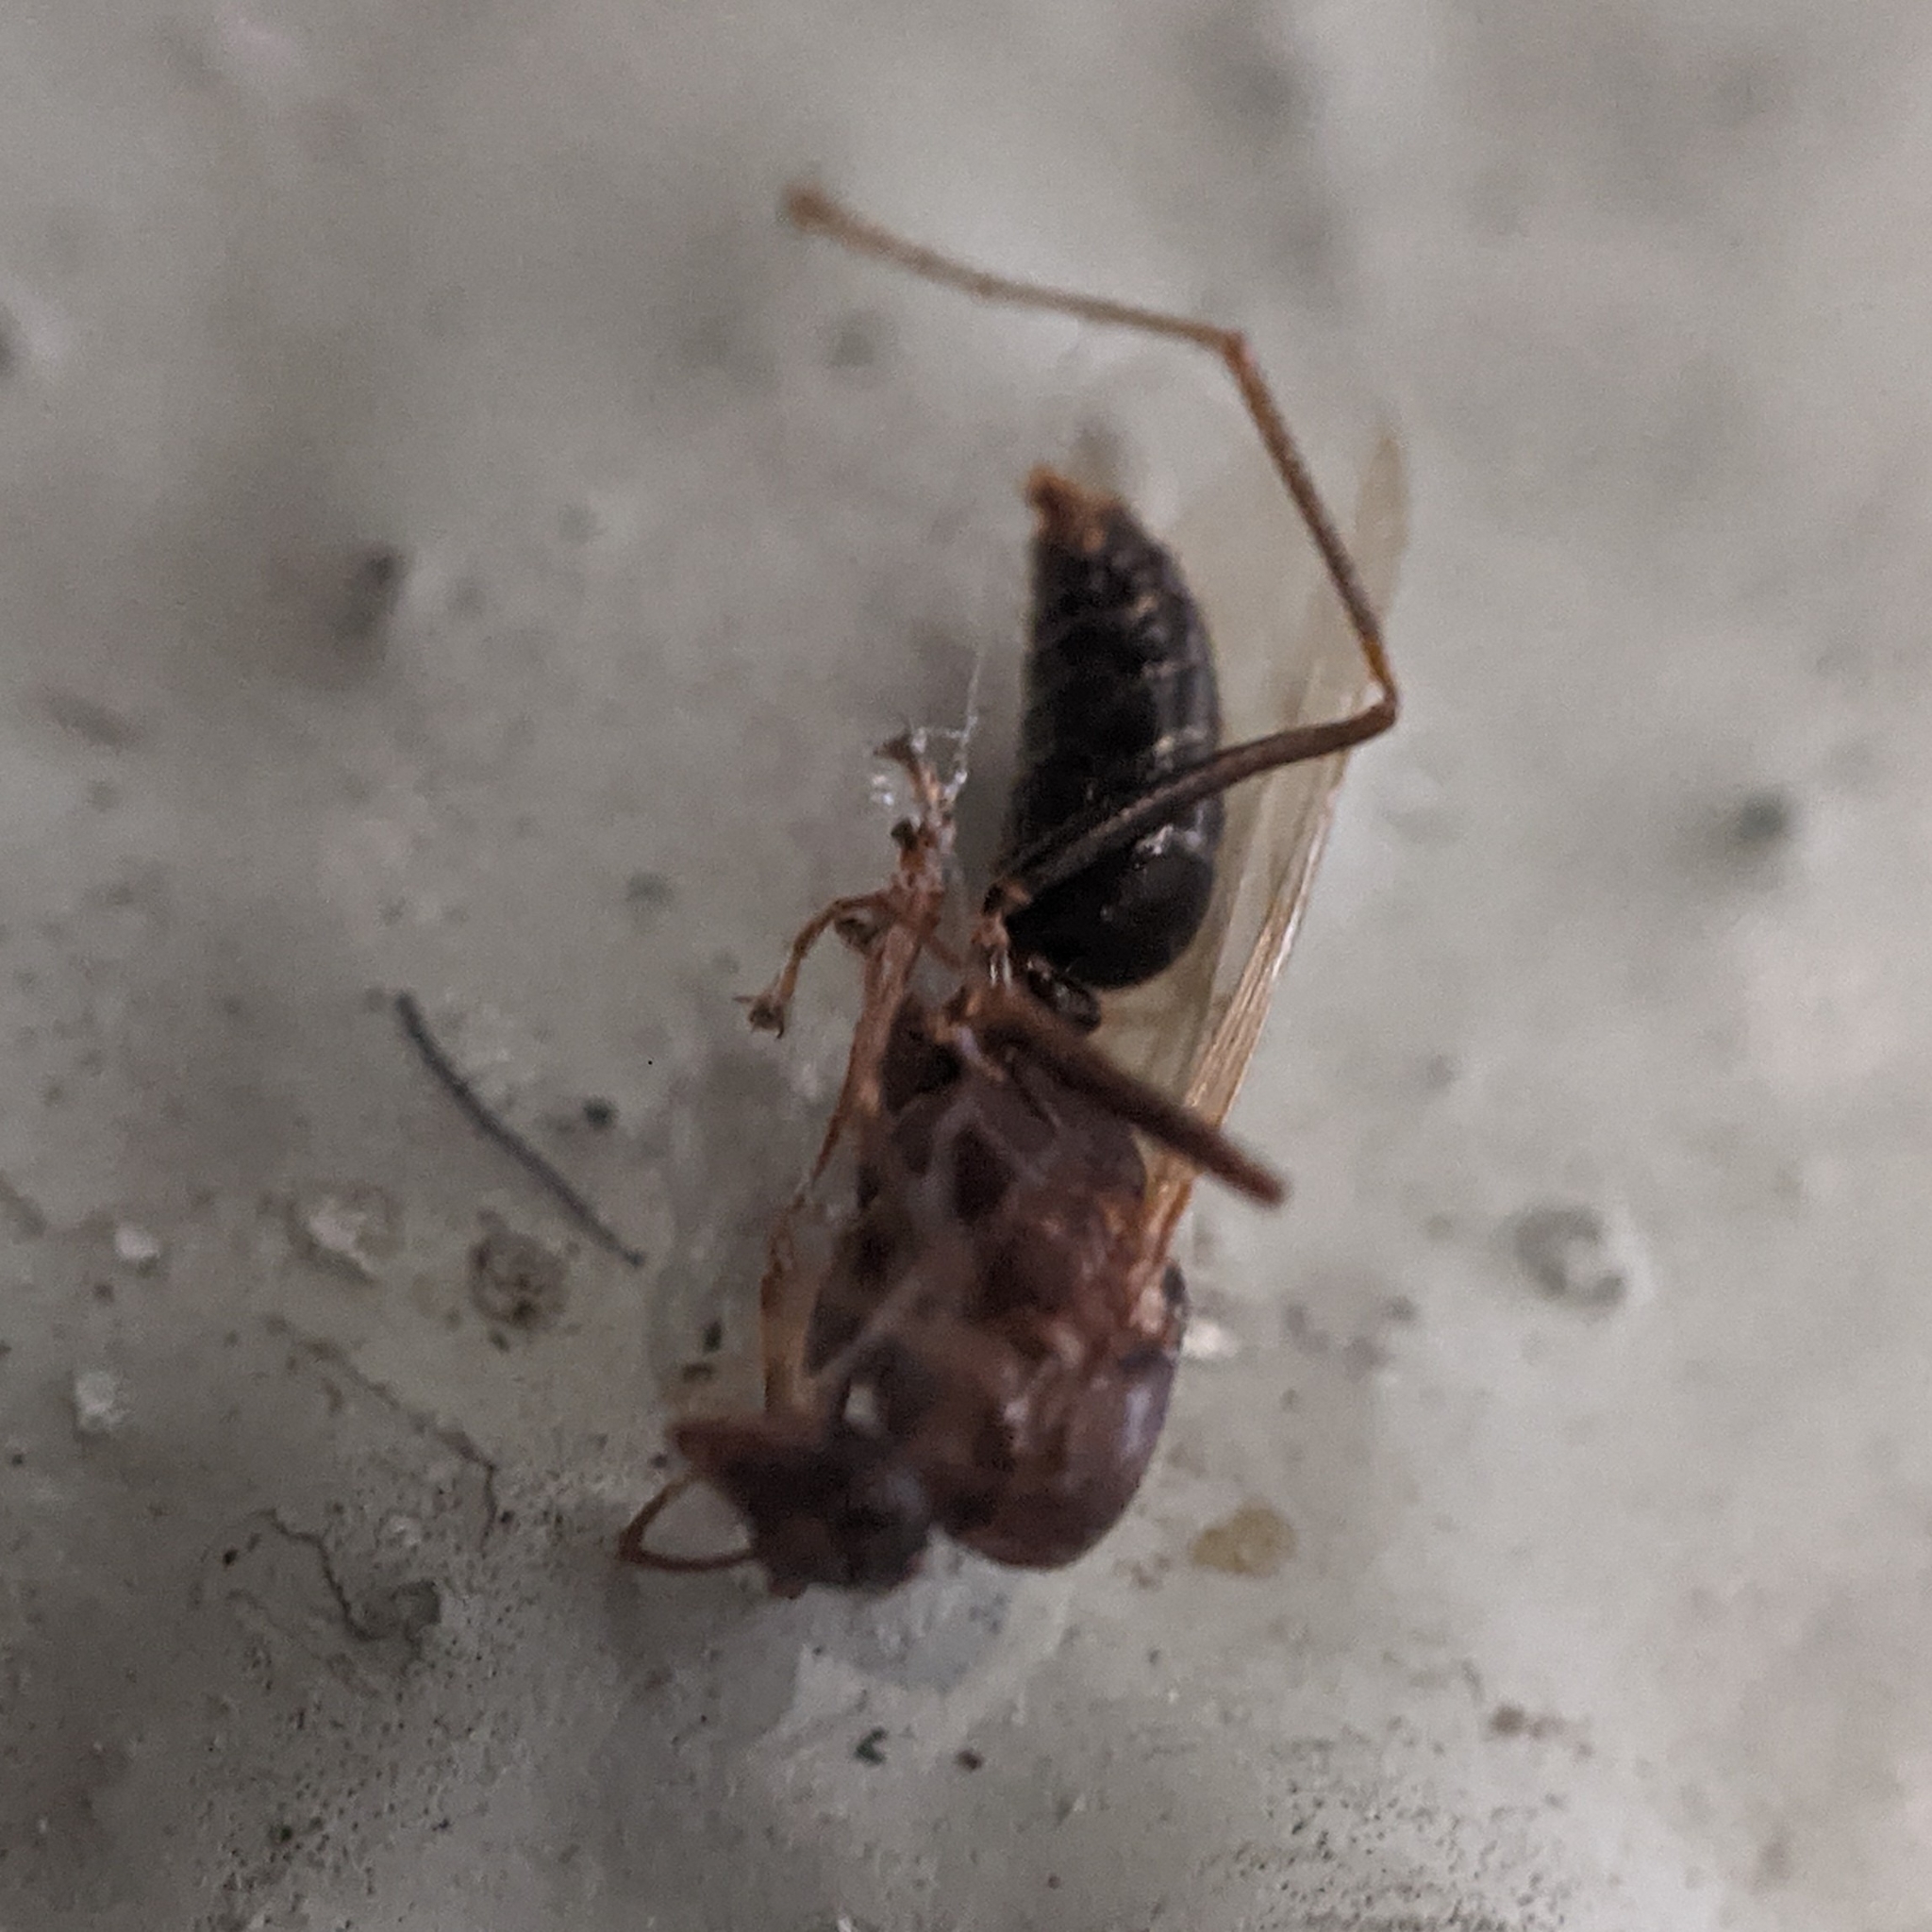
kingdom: Animalia
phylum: Arthropoda
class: Insecta
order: Hymenoptera
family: Formicidae
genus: Camponotus
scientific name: Camponotus floridanus
